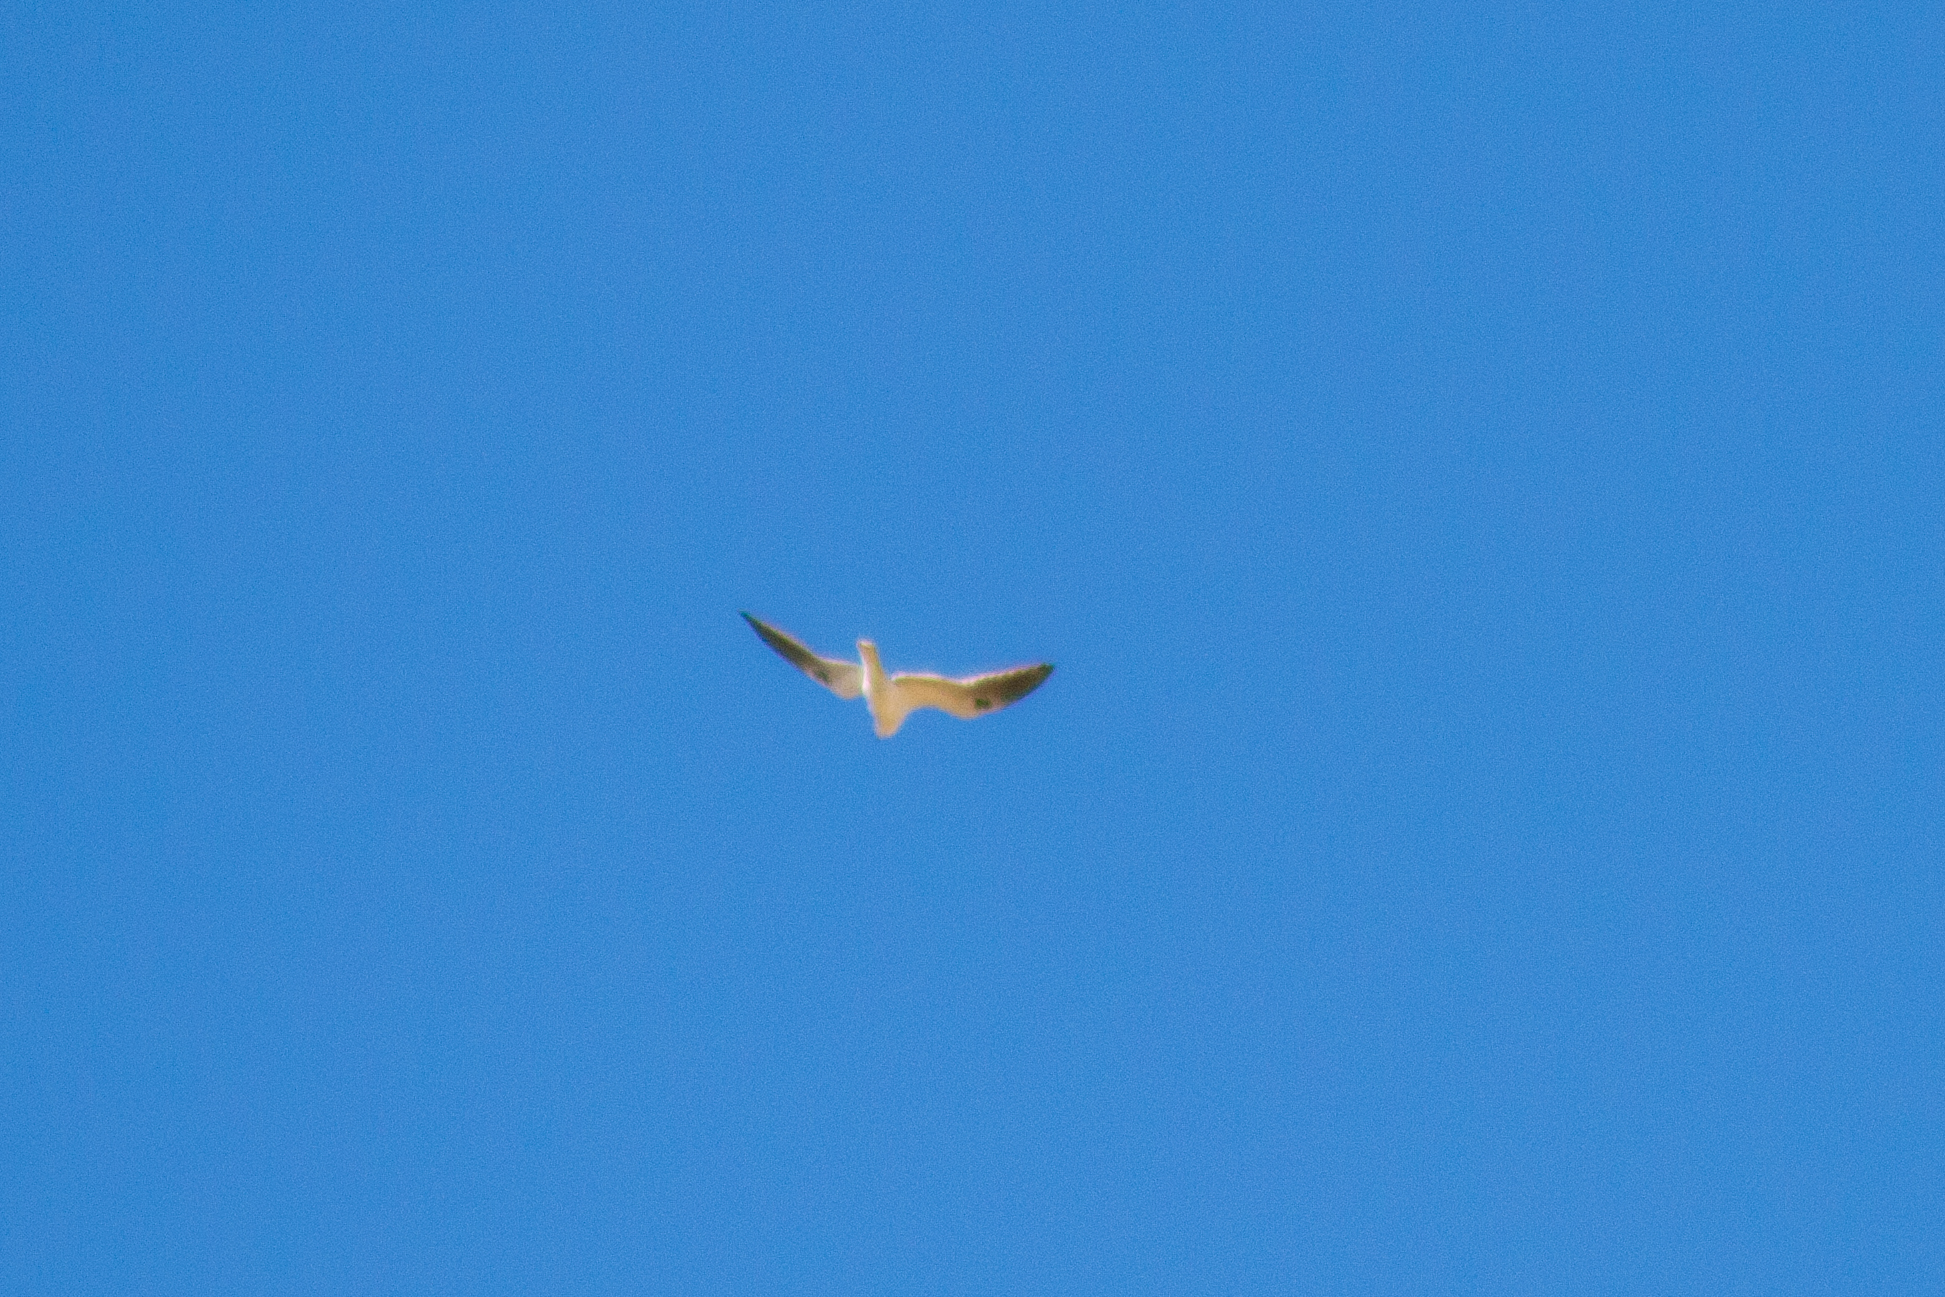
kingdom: Animalia
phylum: Chordata
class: Aves
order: Accipitriformes
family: Accipitridae
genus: Elanus
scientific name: Elanus leucurus
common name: White-tailed kite
